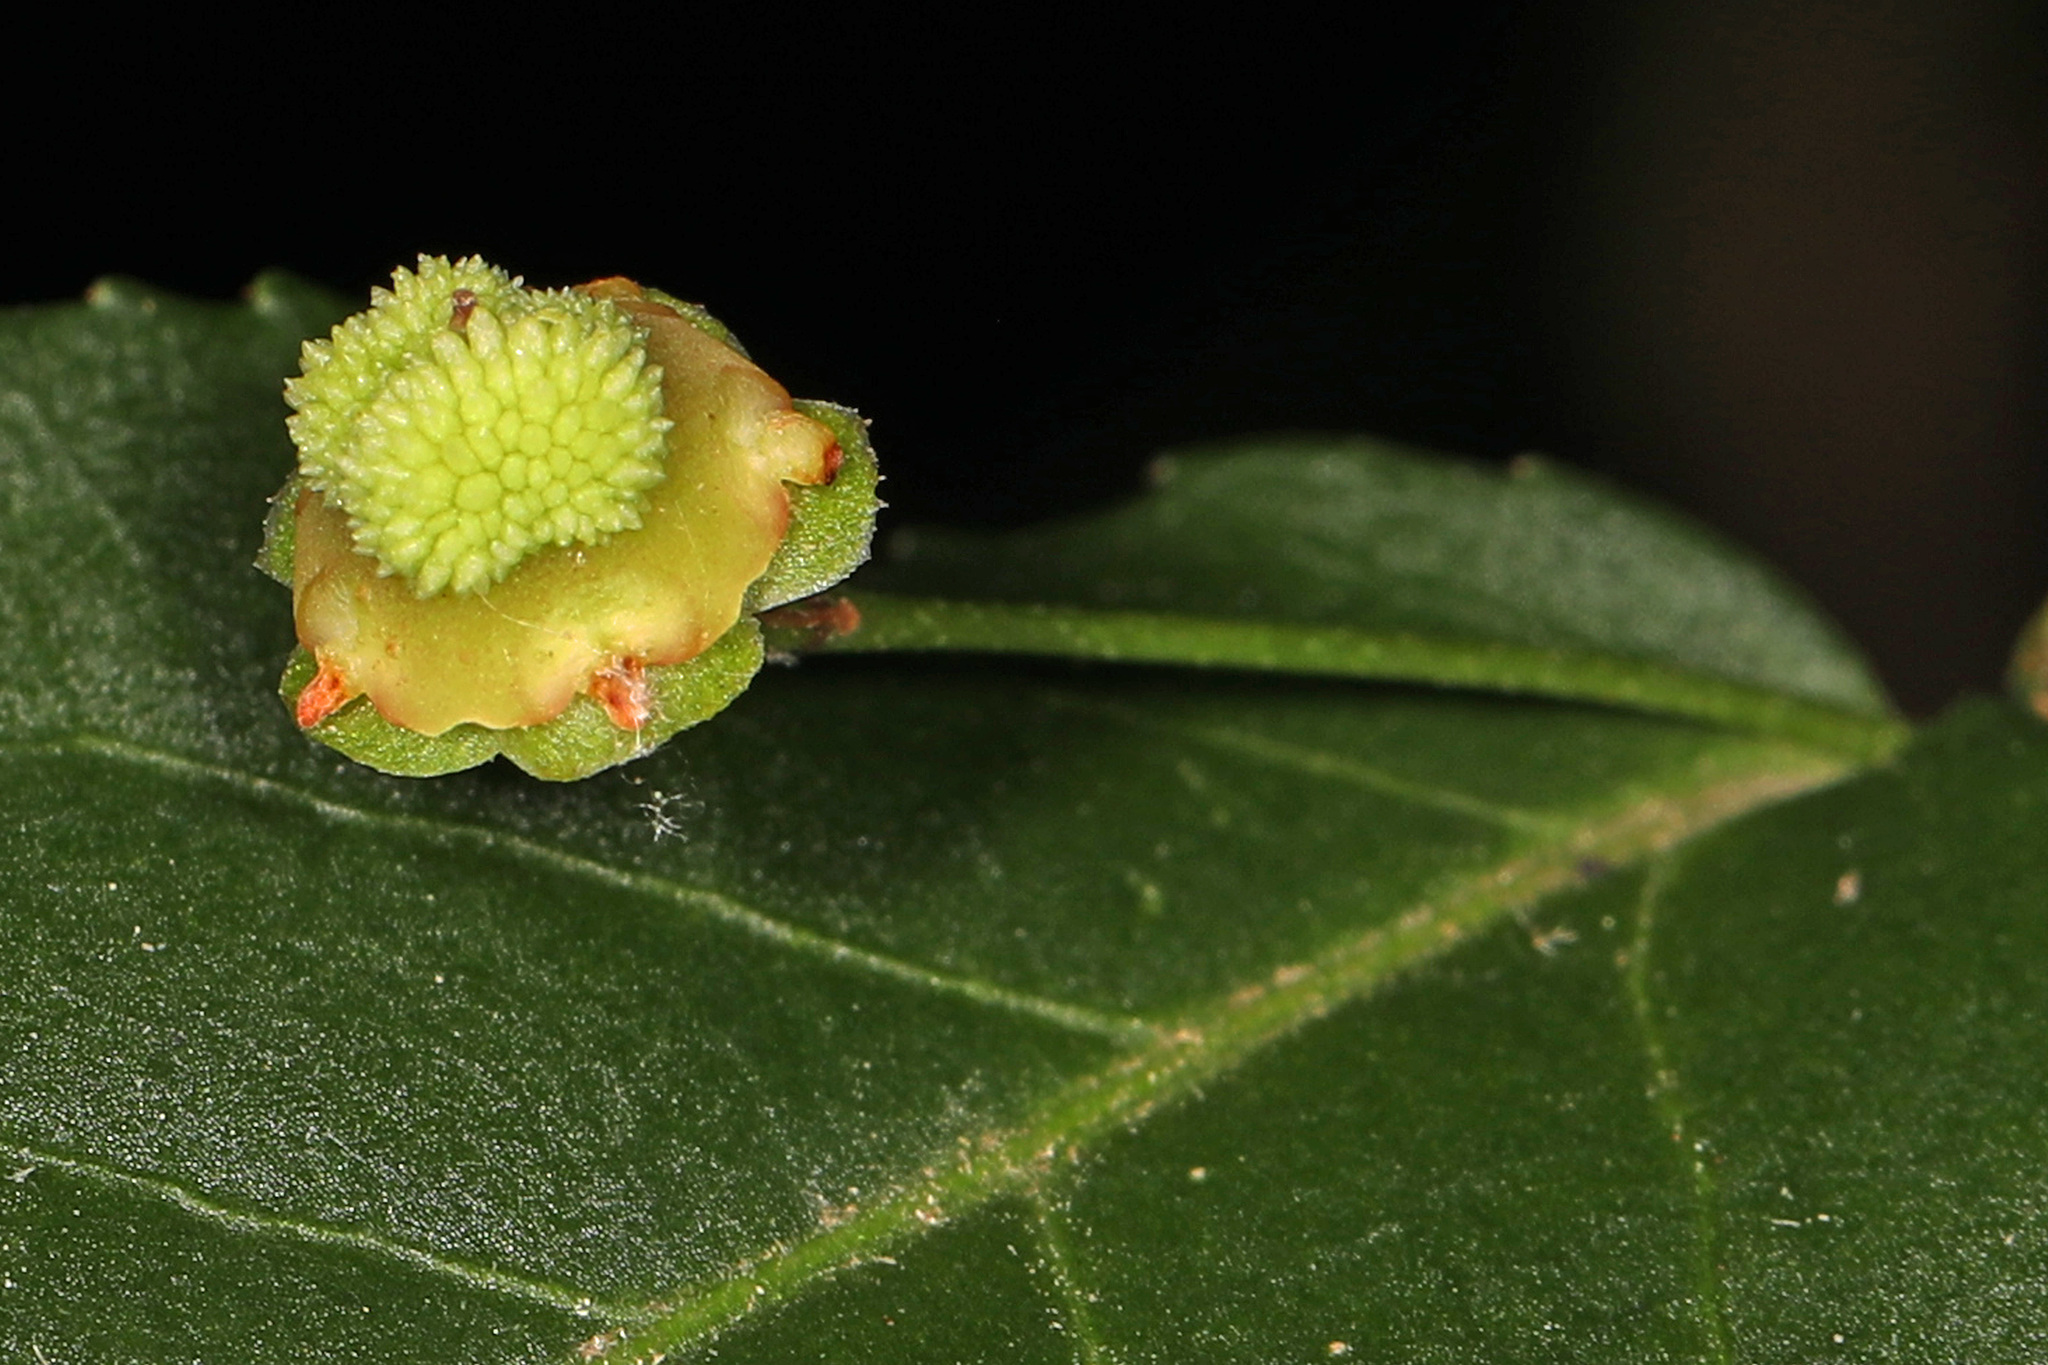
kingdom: Plantae
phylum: Tracheophyta
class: Magnoliopsida
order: Celastrales
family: Celastraceae
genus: Euonymus
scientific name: Euonymus americanus
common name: Bursting-heart
